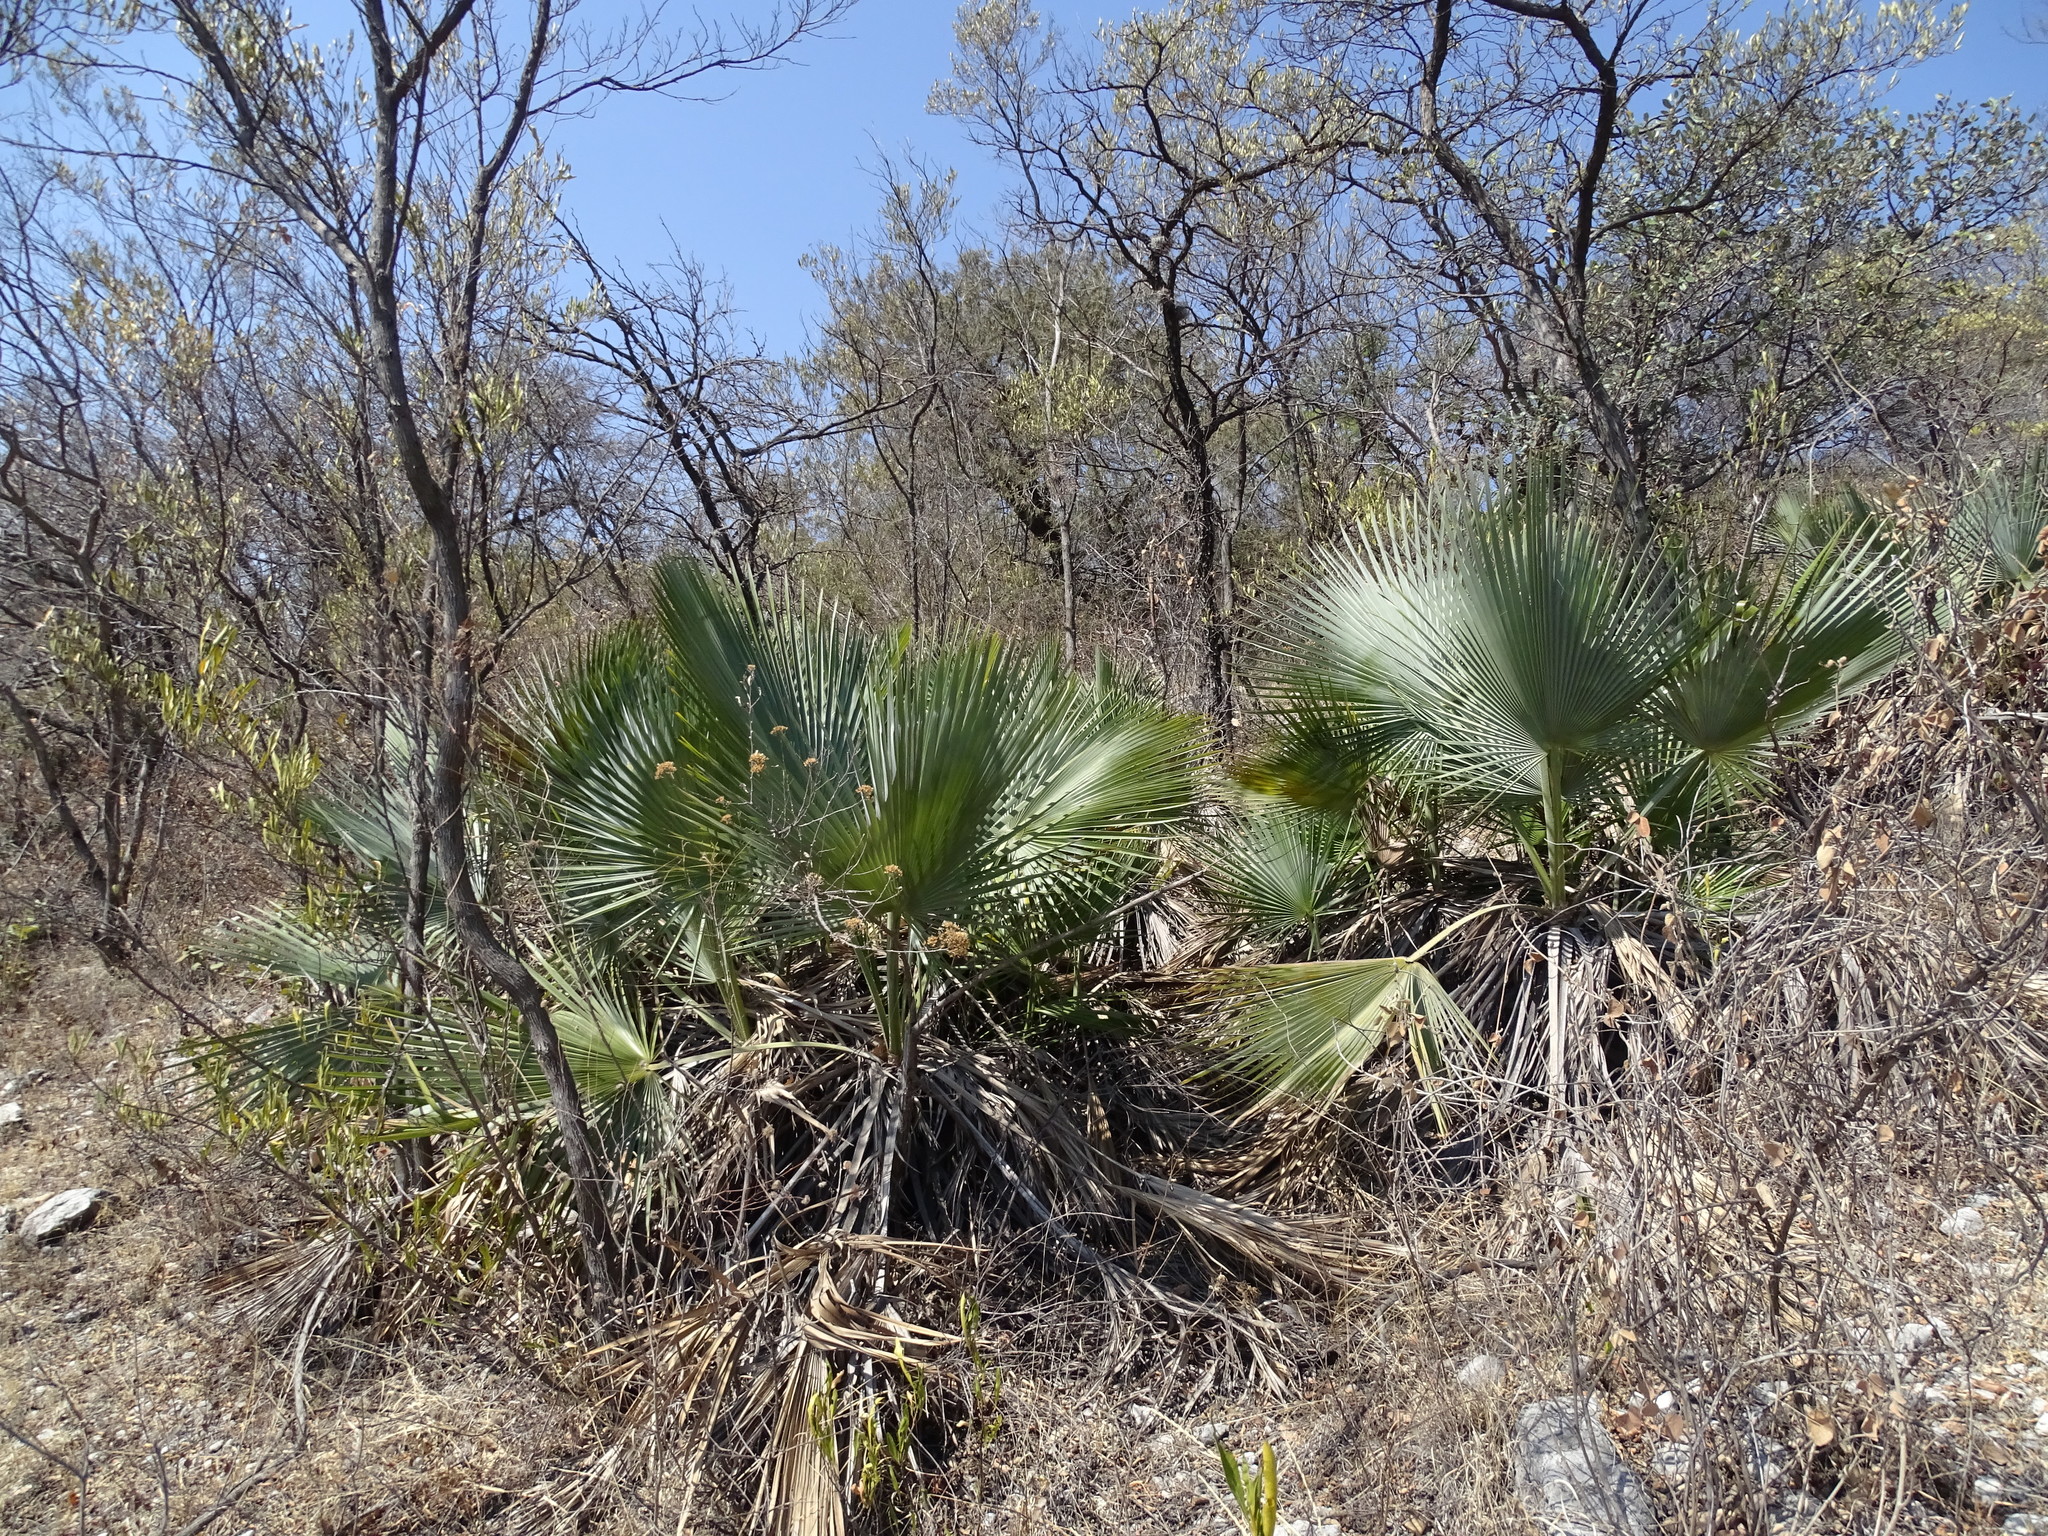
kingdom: Plantae
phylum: Tracheophyta
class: Liliopsida
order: Arecales
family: Arecaceae
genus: Brahea
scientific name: Brahea dulcis
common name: Apak palm
